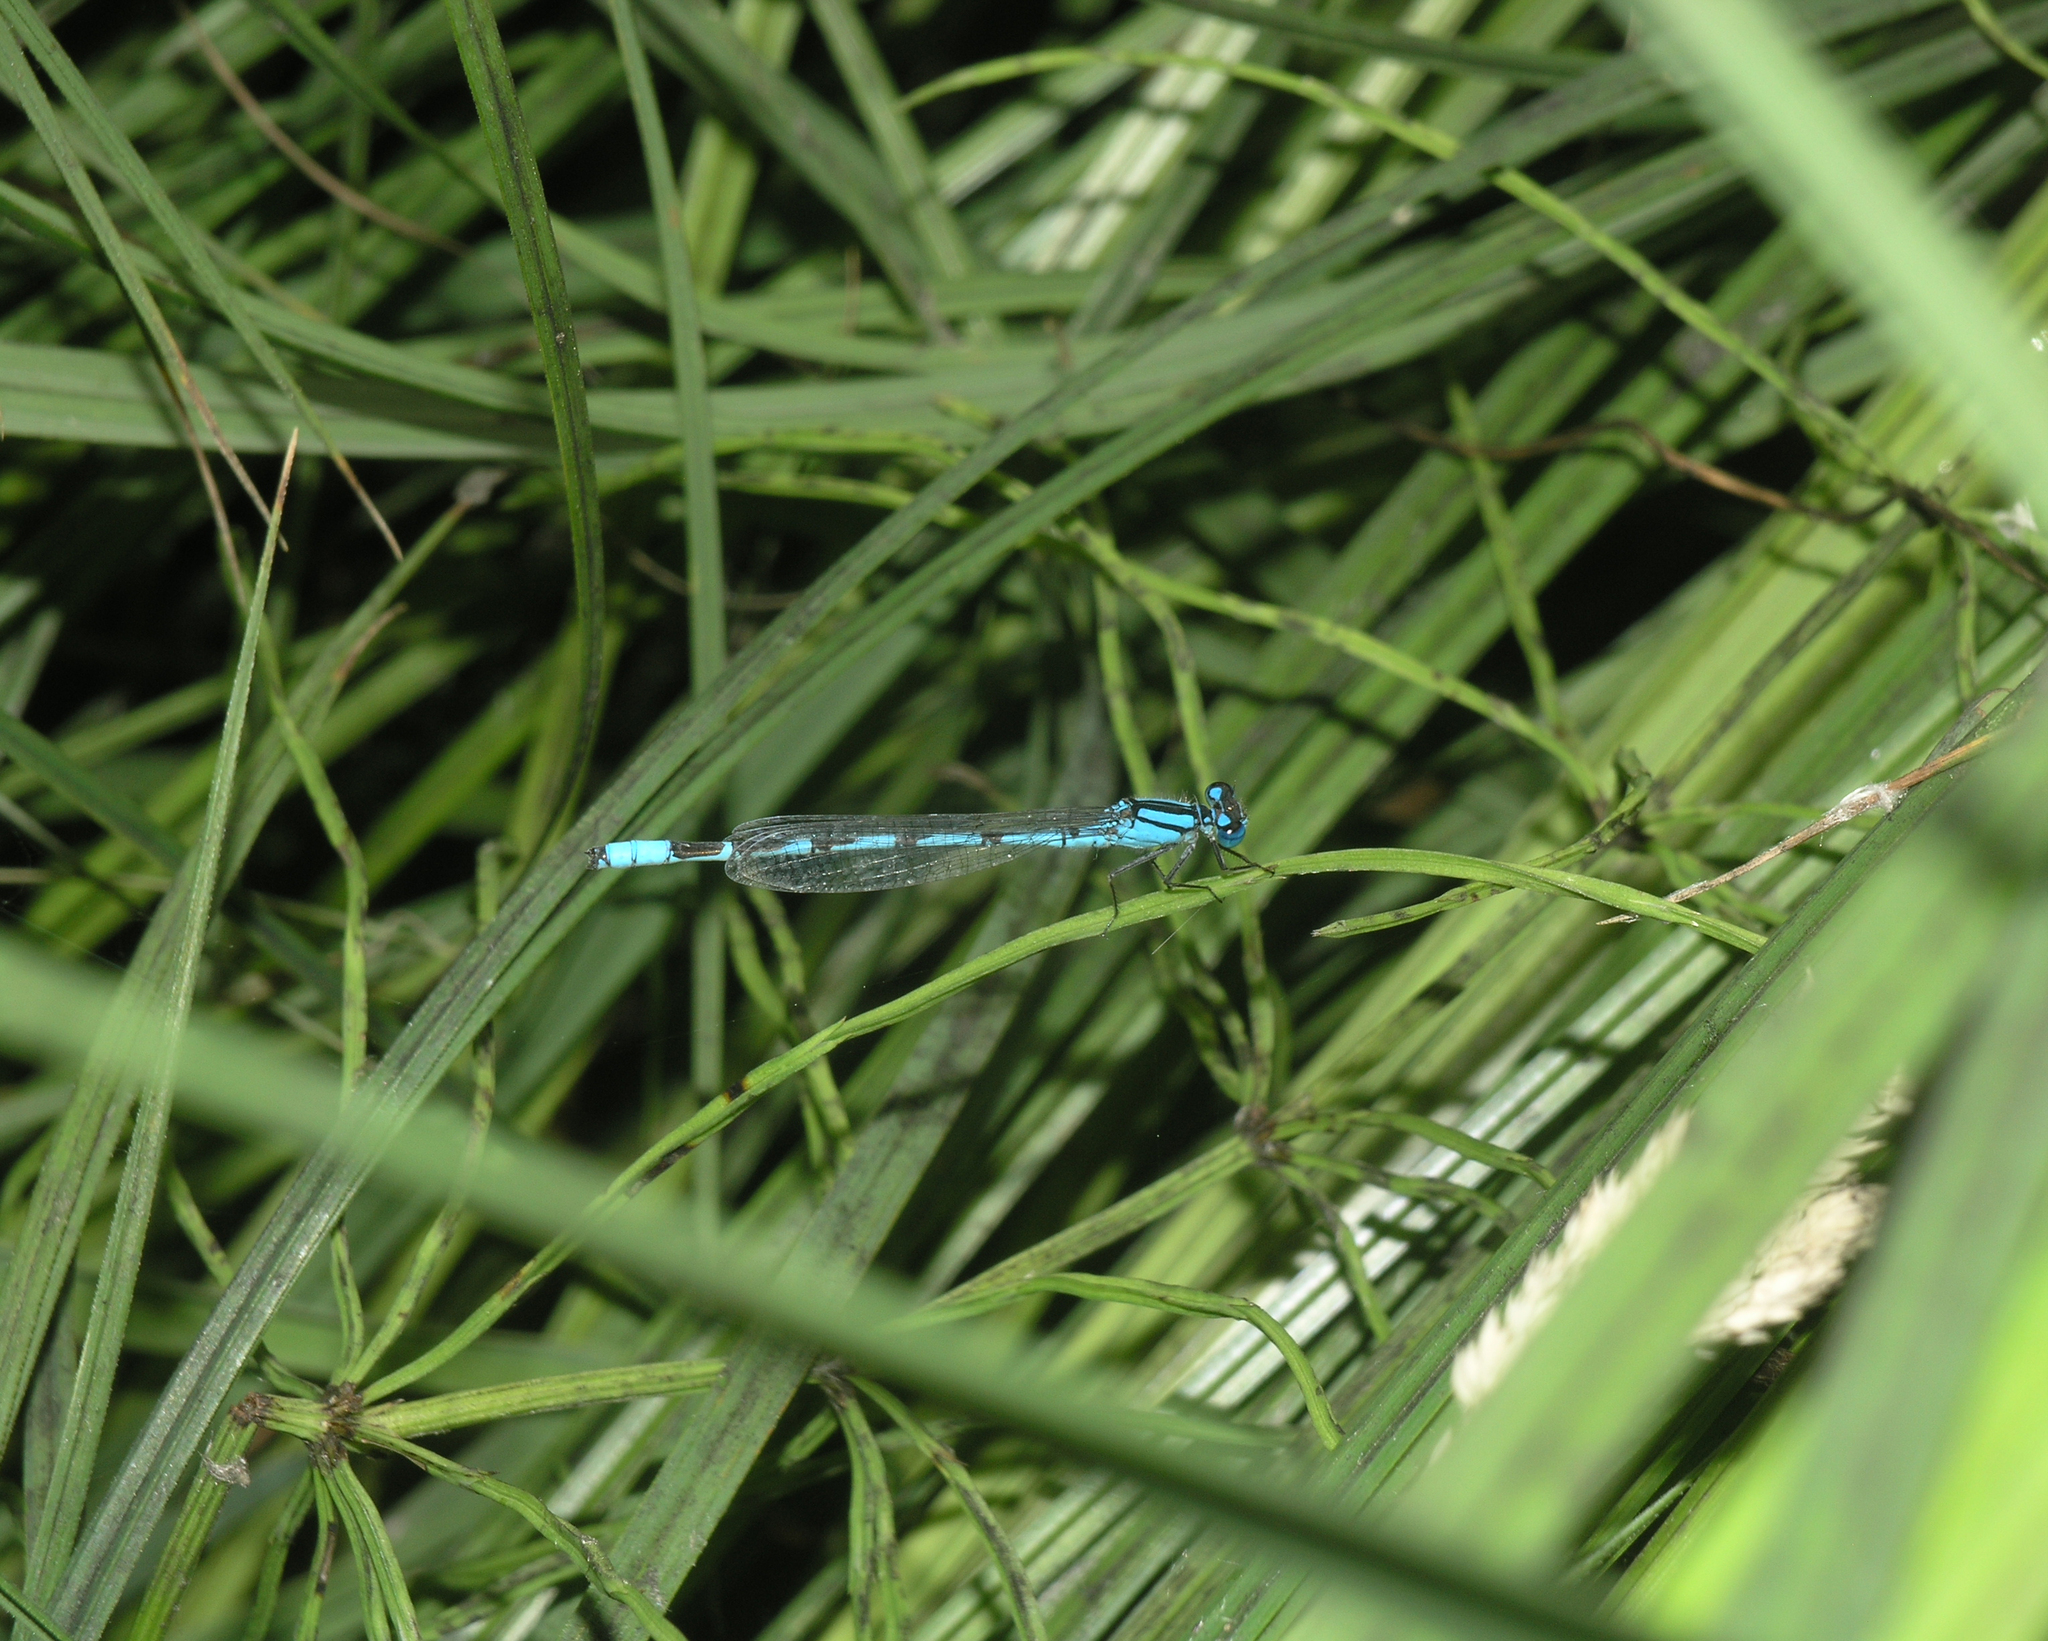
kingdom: Plantae
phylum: Tracheophyta
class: Polypodiopsida
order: Equisetales
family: Equisetaceae
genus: Equisetum
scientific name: Equisetum arvense
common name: Field horsetail
